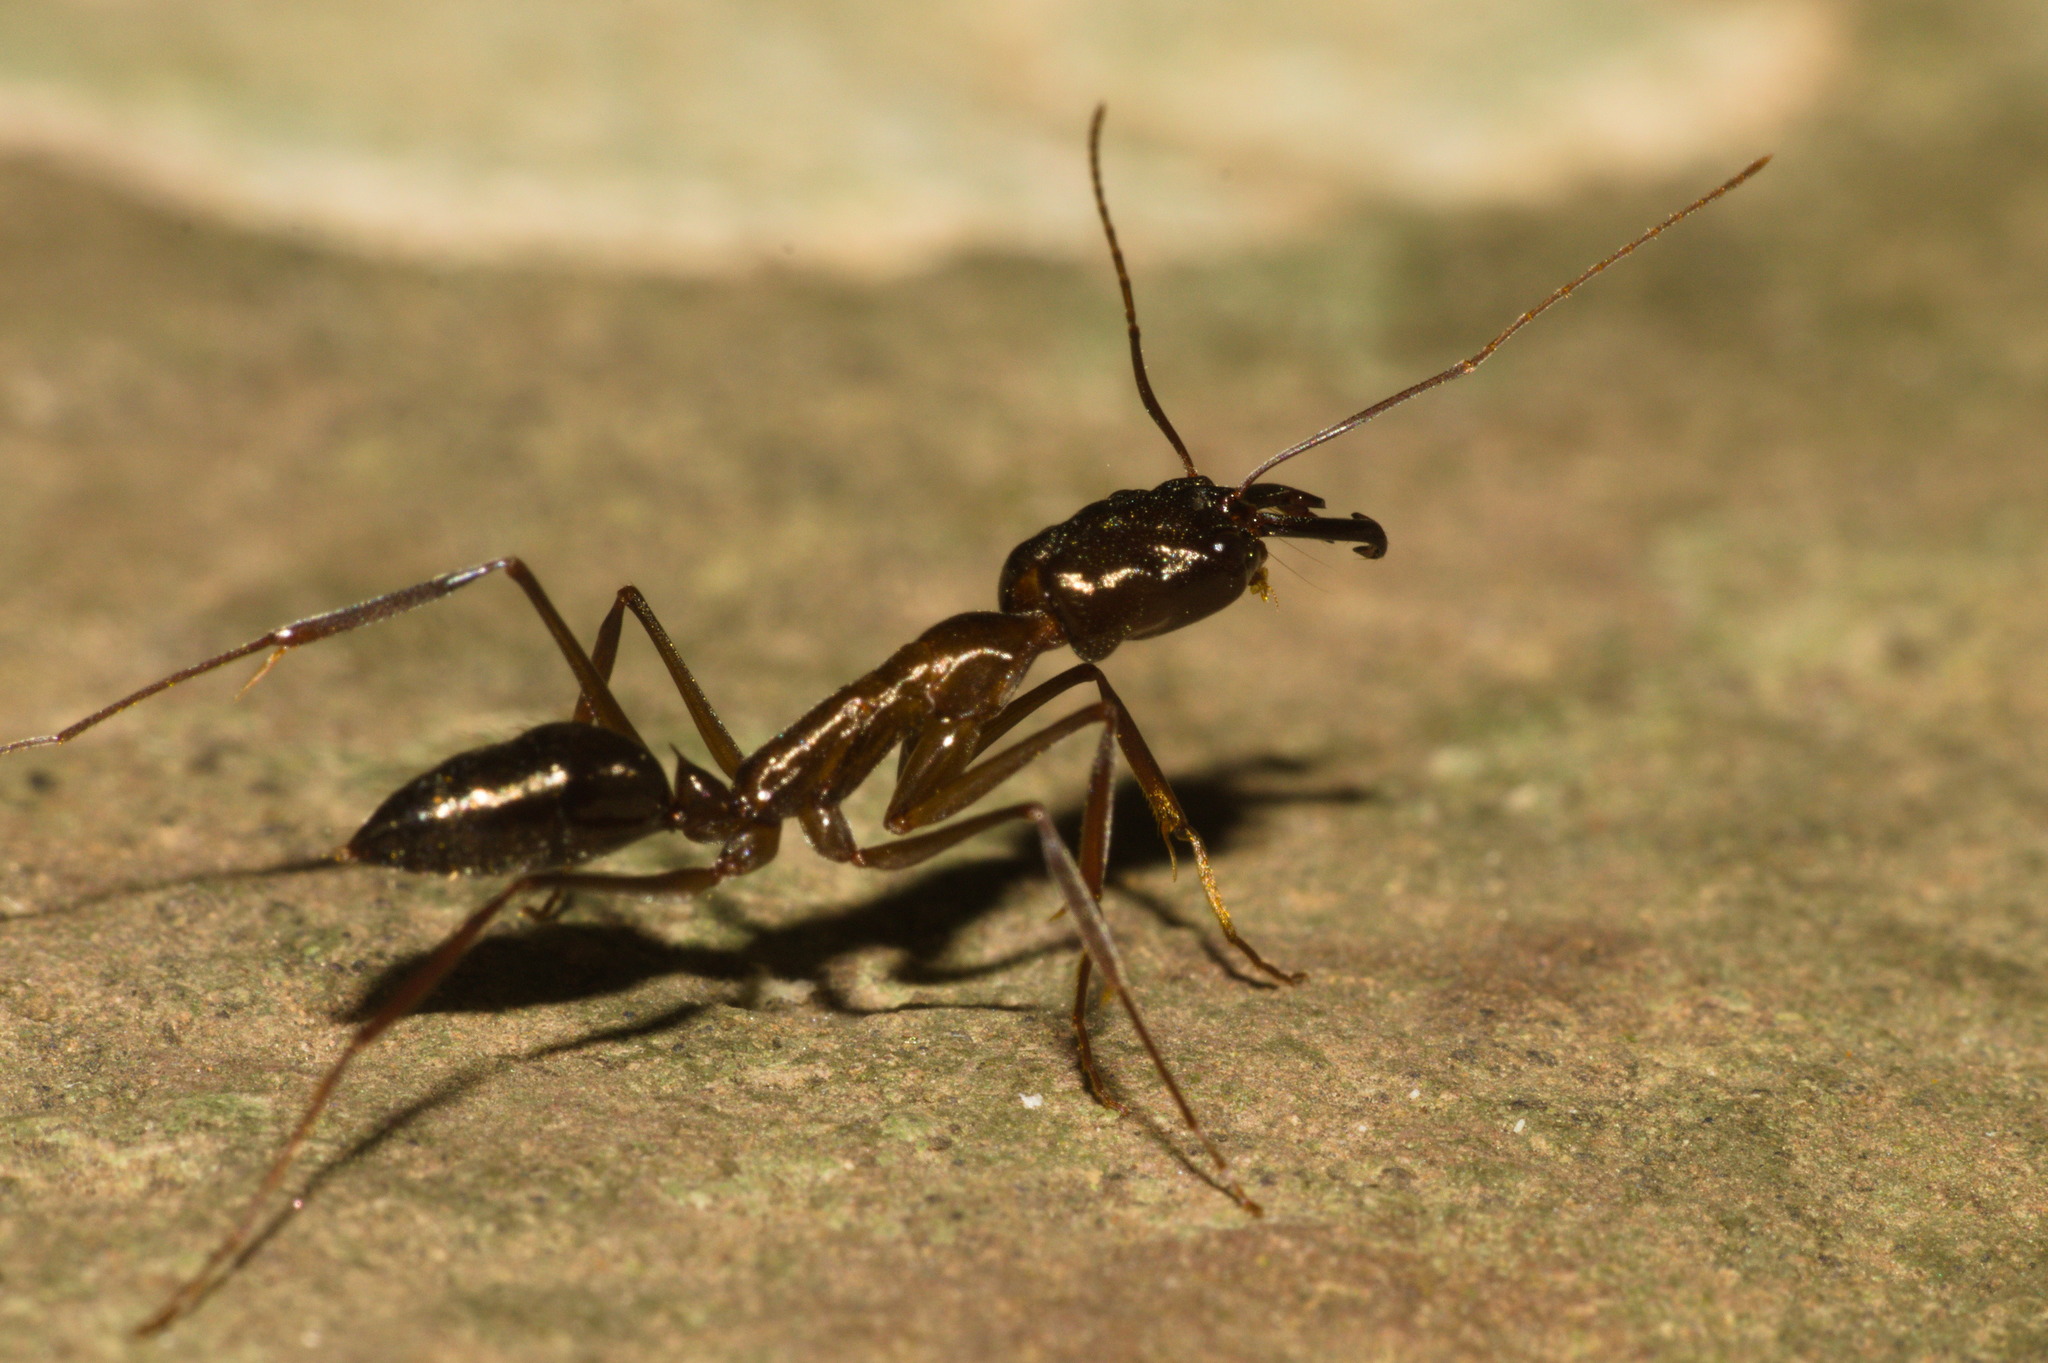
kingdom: Animalia
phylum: Arthropoda
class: Insecta
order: Hymenoptera
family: Formicidae
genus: Odontomachus
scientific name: Odontomachus chelifer
